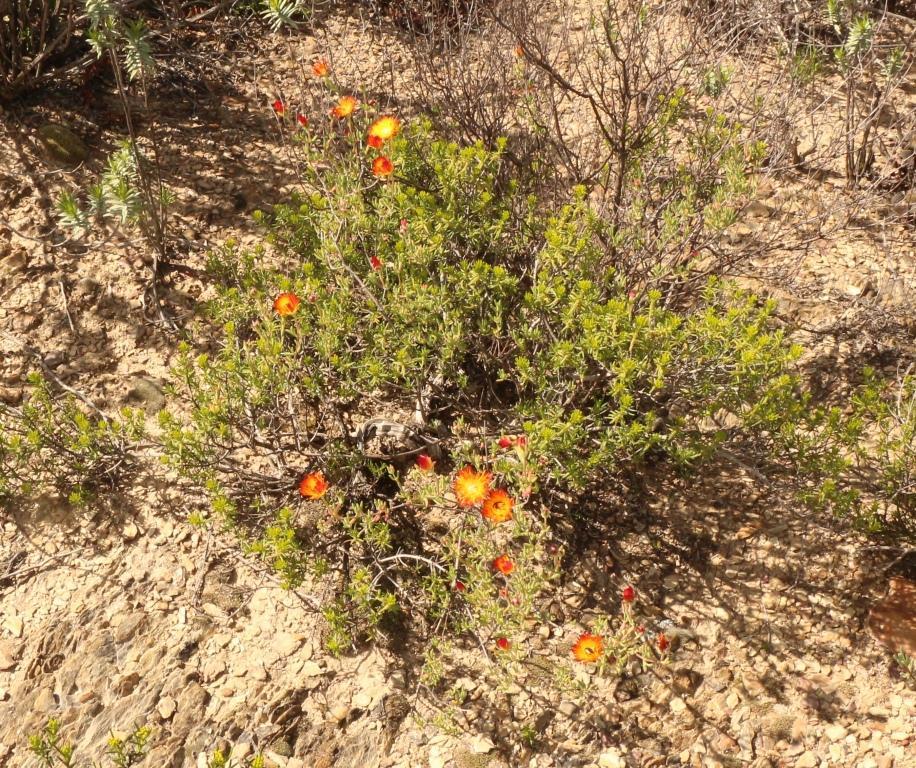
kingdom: Plantae
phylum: Tracheophyta
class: Magnoliopsida
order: Caryophyllales
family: Aizoaceae
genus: Drosanthemum
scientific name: Drosanthemum bicolor
